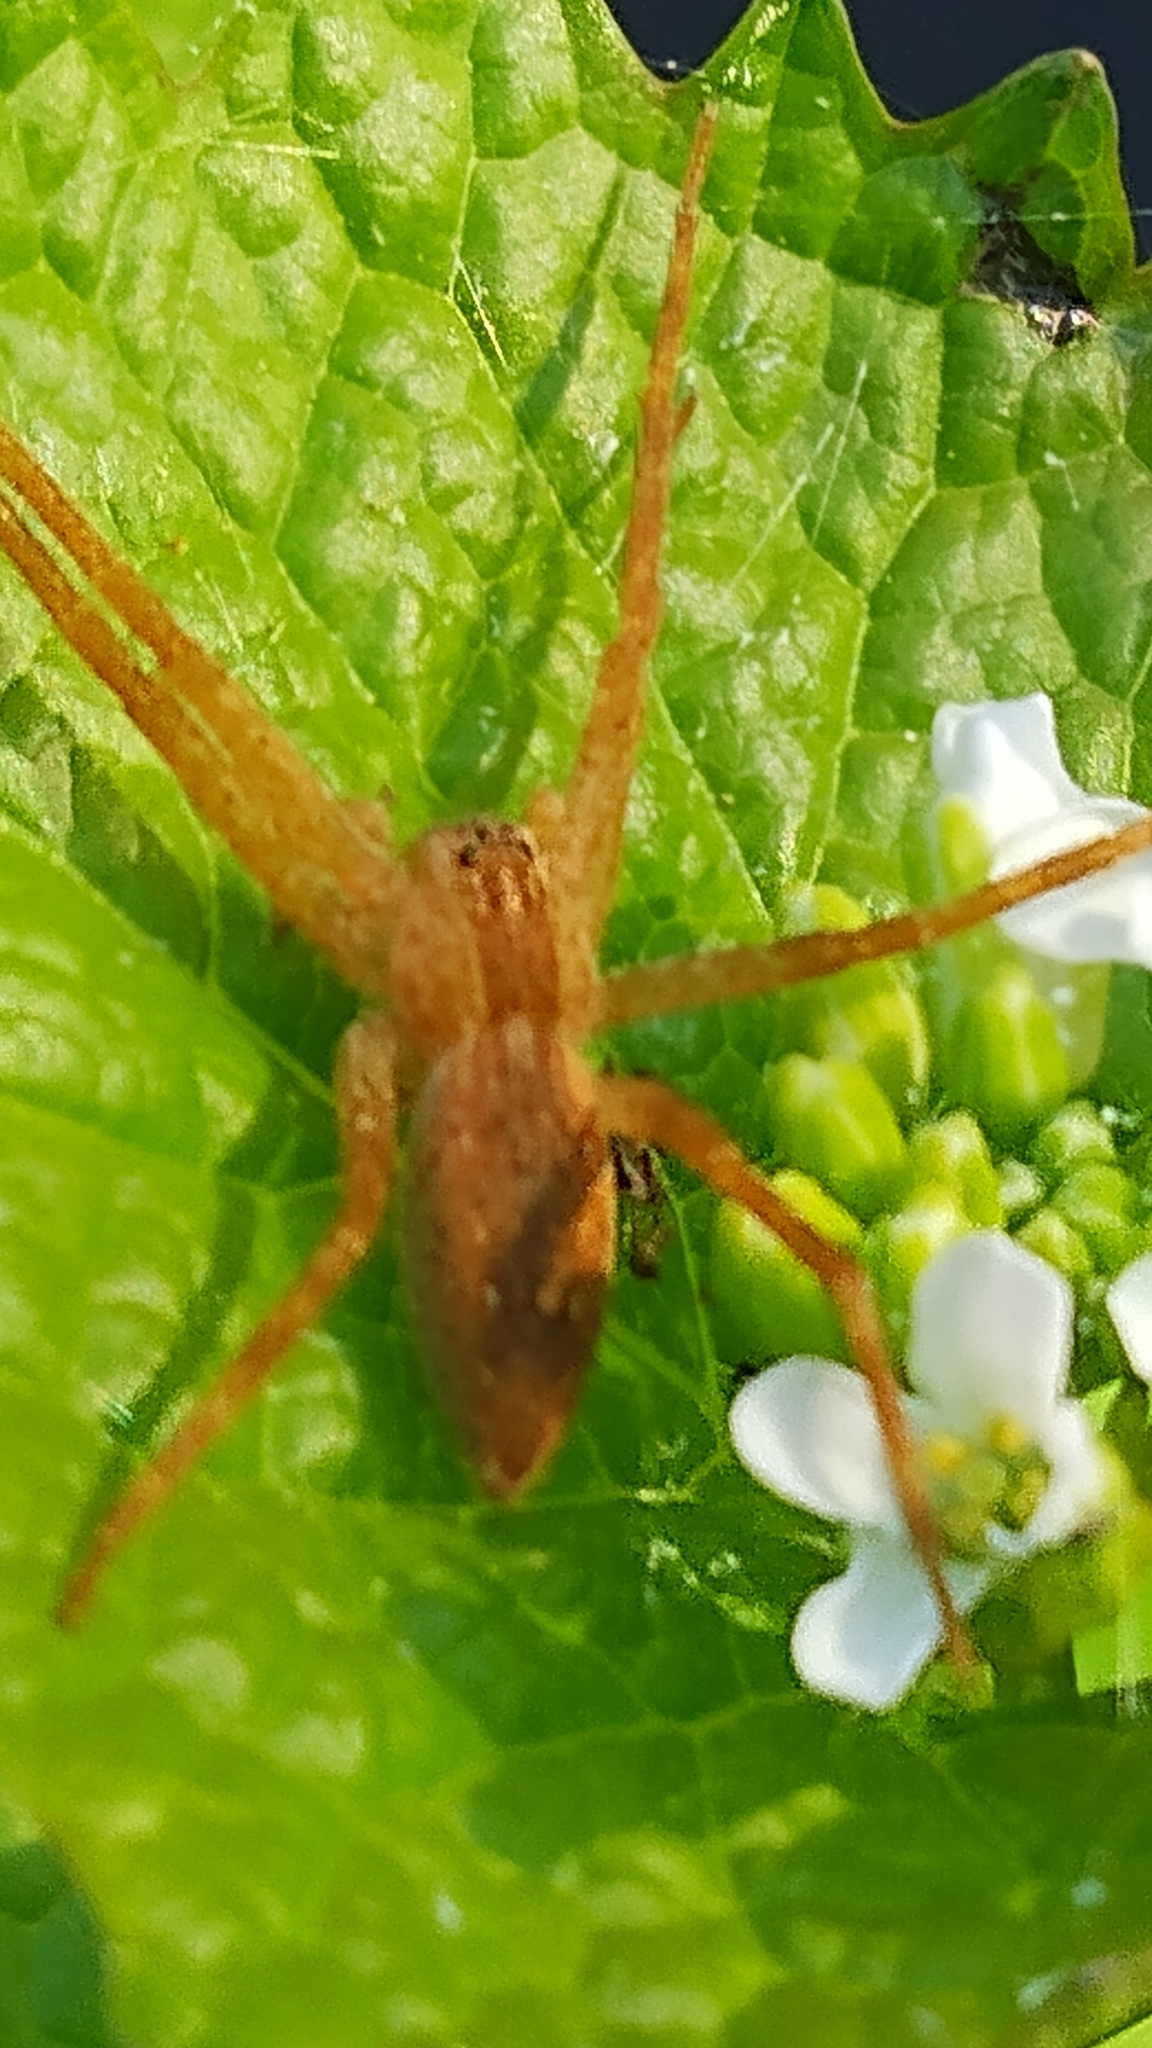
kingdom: Animalia
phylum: Arthropoda
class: Arachnida
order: Araneae
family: Pisauridae
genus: Pisaurina
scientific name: Pisaurina mira
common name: American nursery web spider
